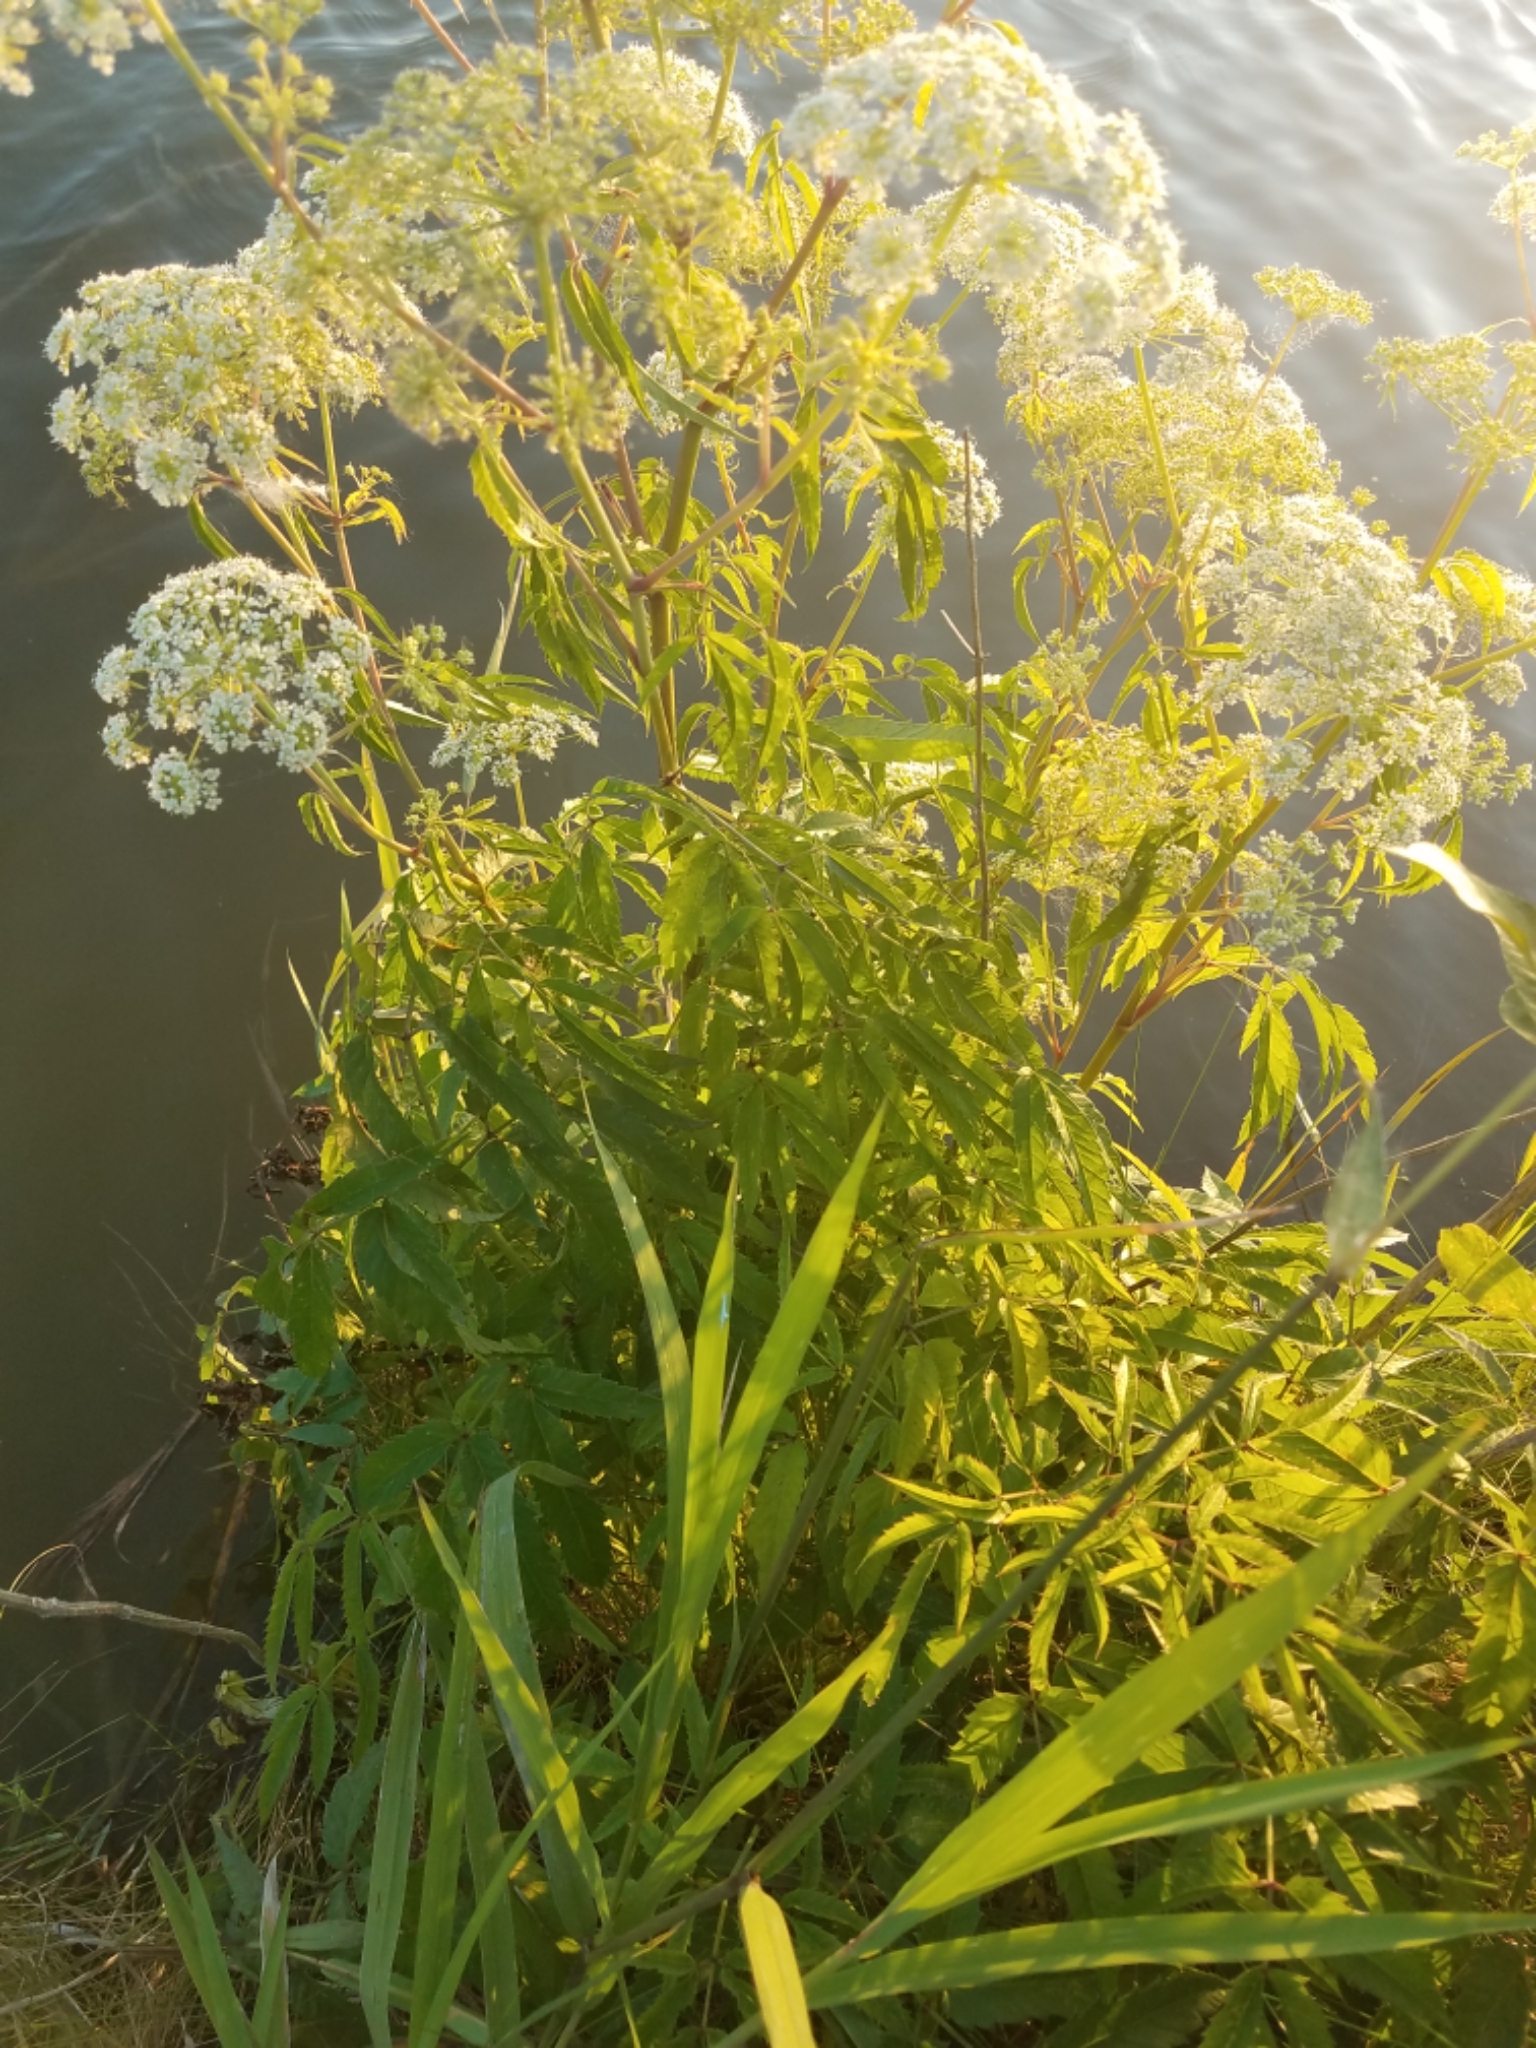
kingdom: Plantae
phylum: Tracheophyta
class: Magnoliopsida
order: Apiales
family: Apiaceae
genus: Cicuta
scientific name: Cicuta maculata
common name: Spotted cowbane
